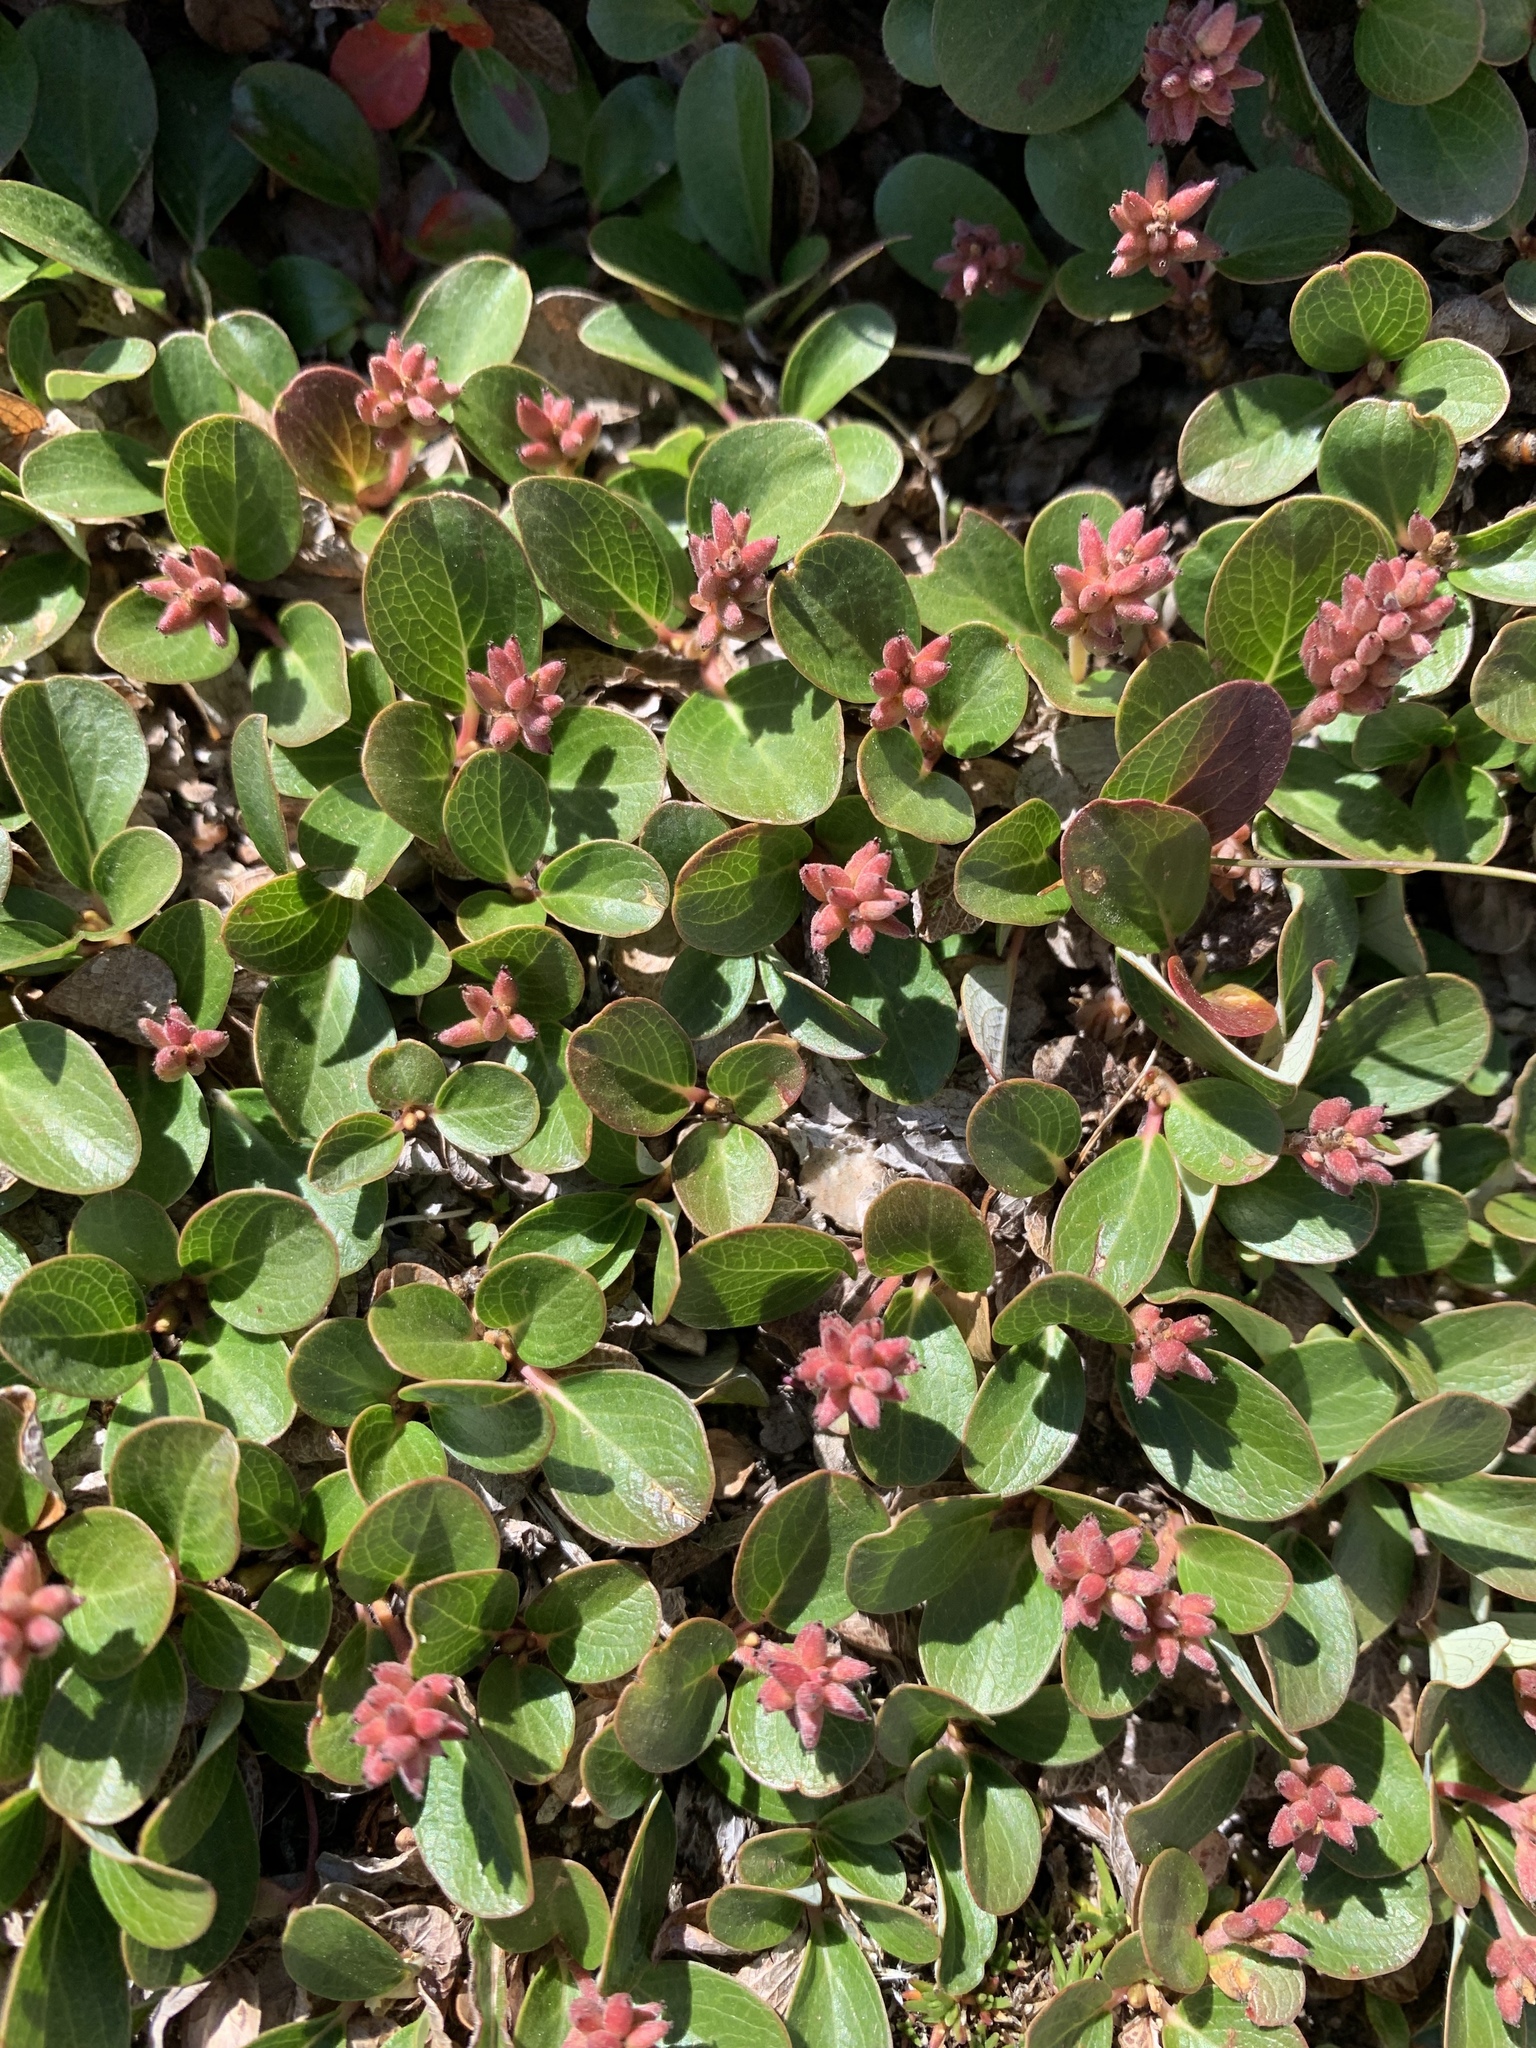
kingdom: Plantae
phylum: Tracheophyta
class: Magnoliopsida
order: Malpighiales
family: Salicaceae
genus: Salix
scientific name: Salix nivalis
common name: Dwarf snow willow
